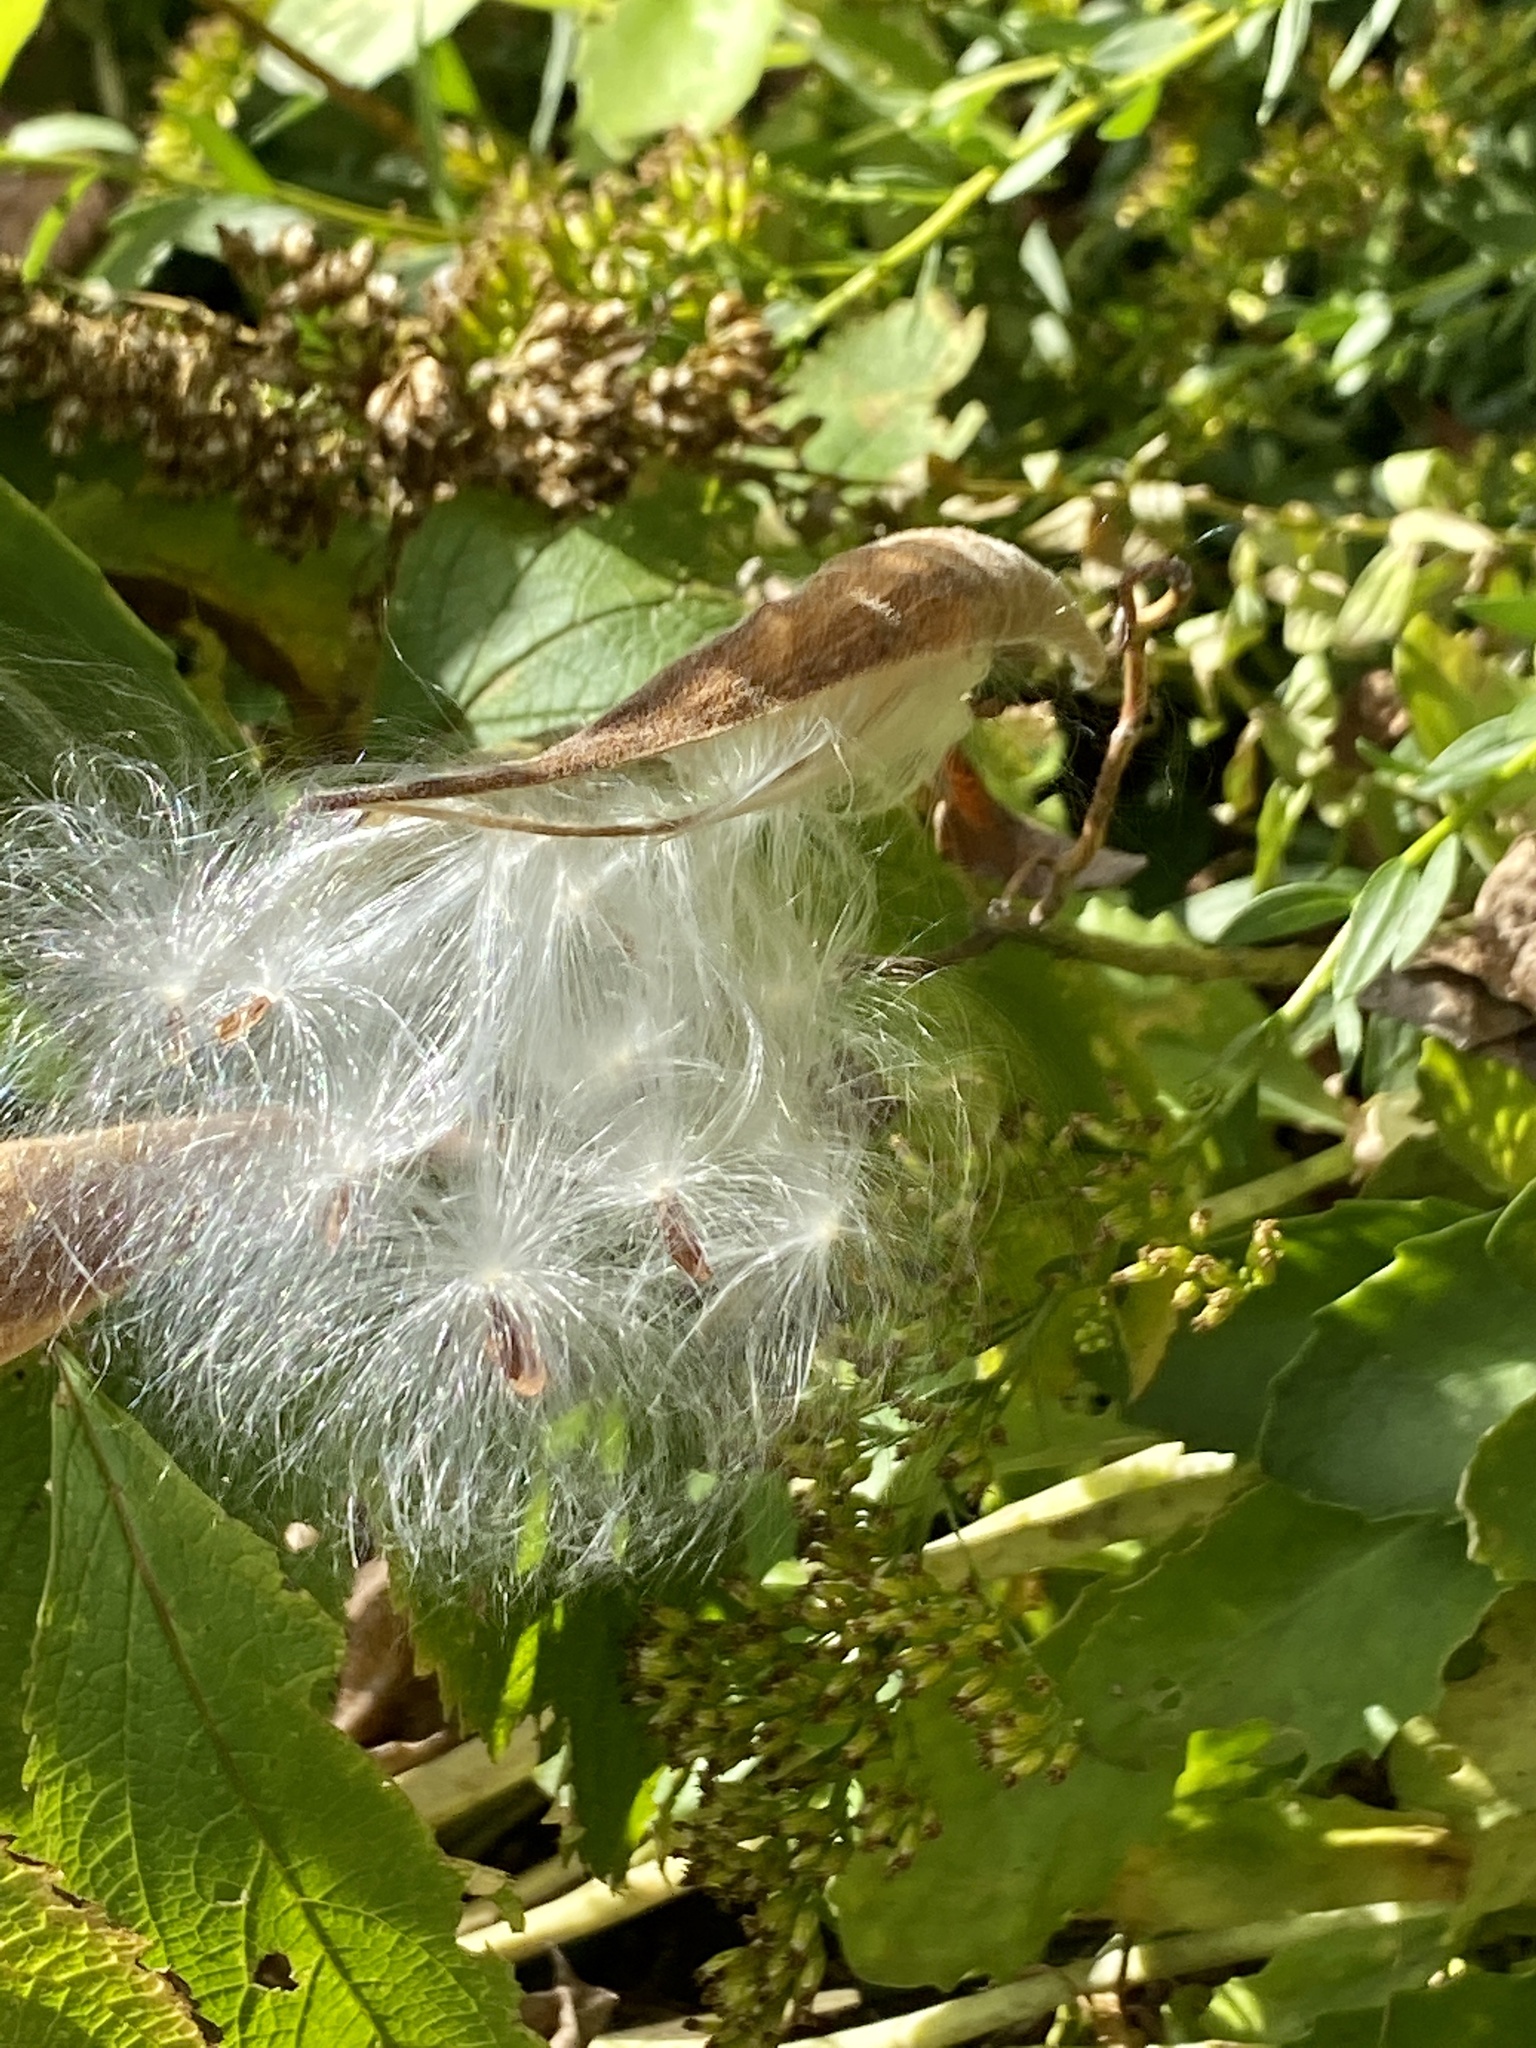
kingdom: Plantae
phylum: Tracheophyta
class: Magnoliopsida
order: Gentianales
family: Apocynaceae
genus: Asclepias
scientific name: Asclepias tuberosa
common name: Butterfly milkweed
